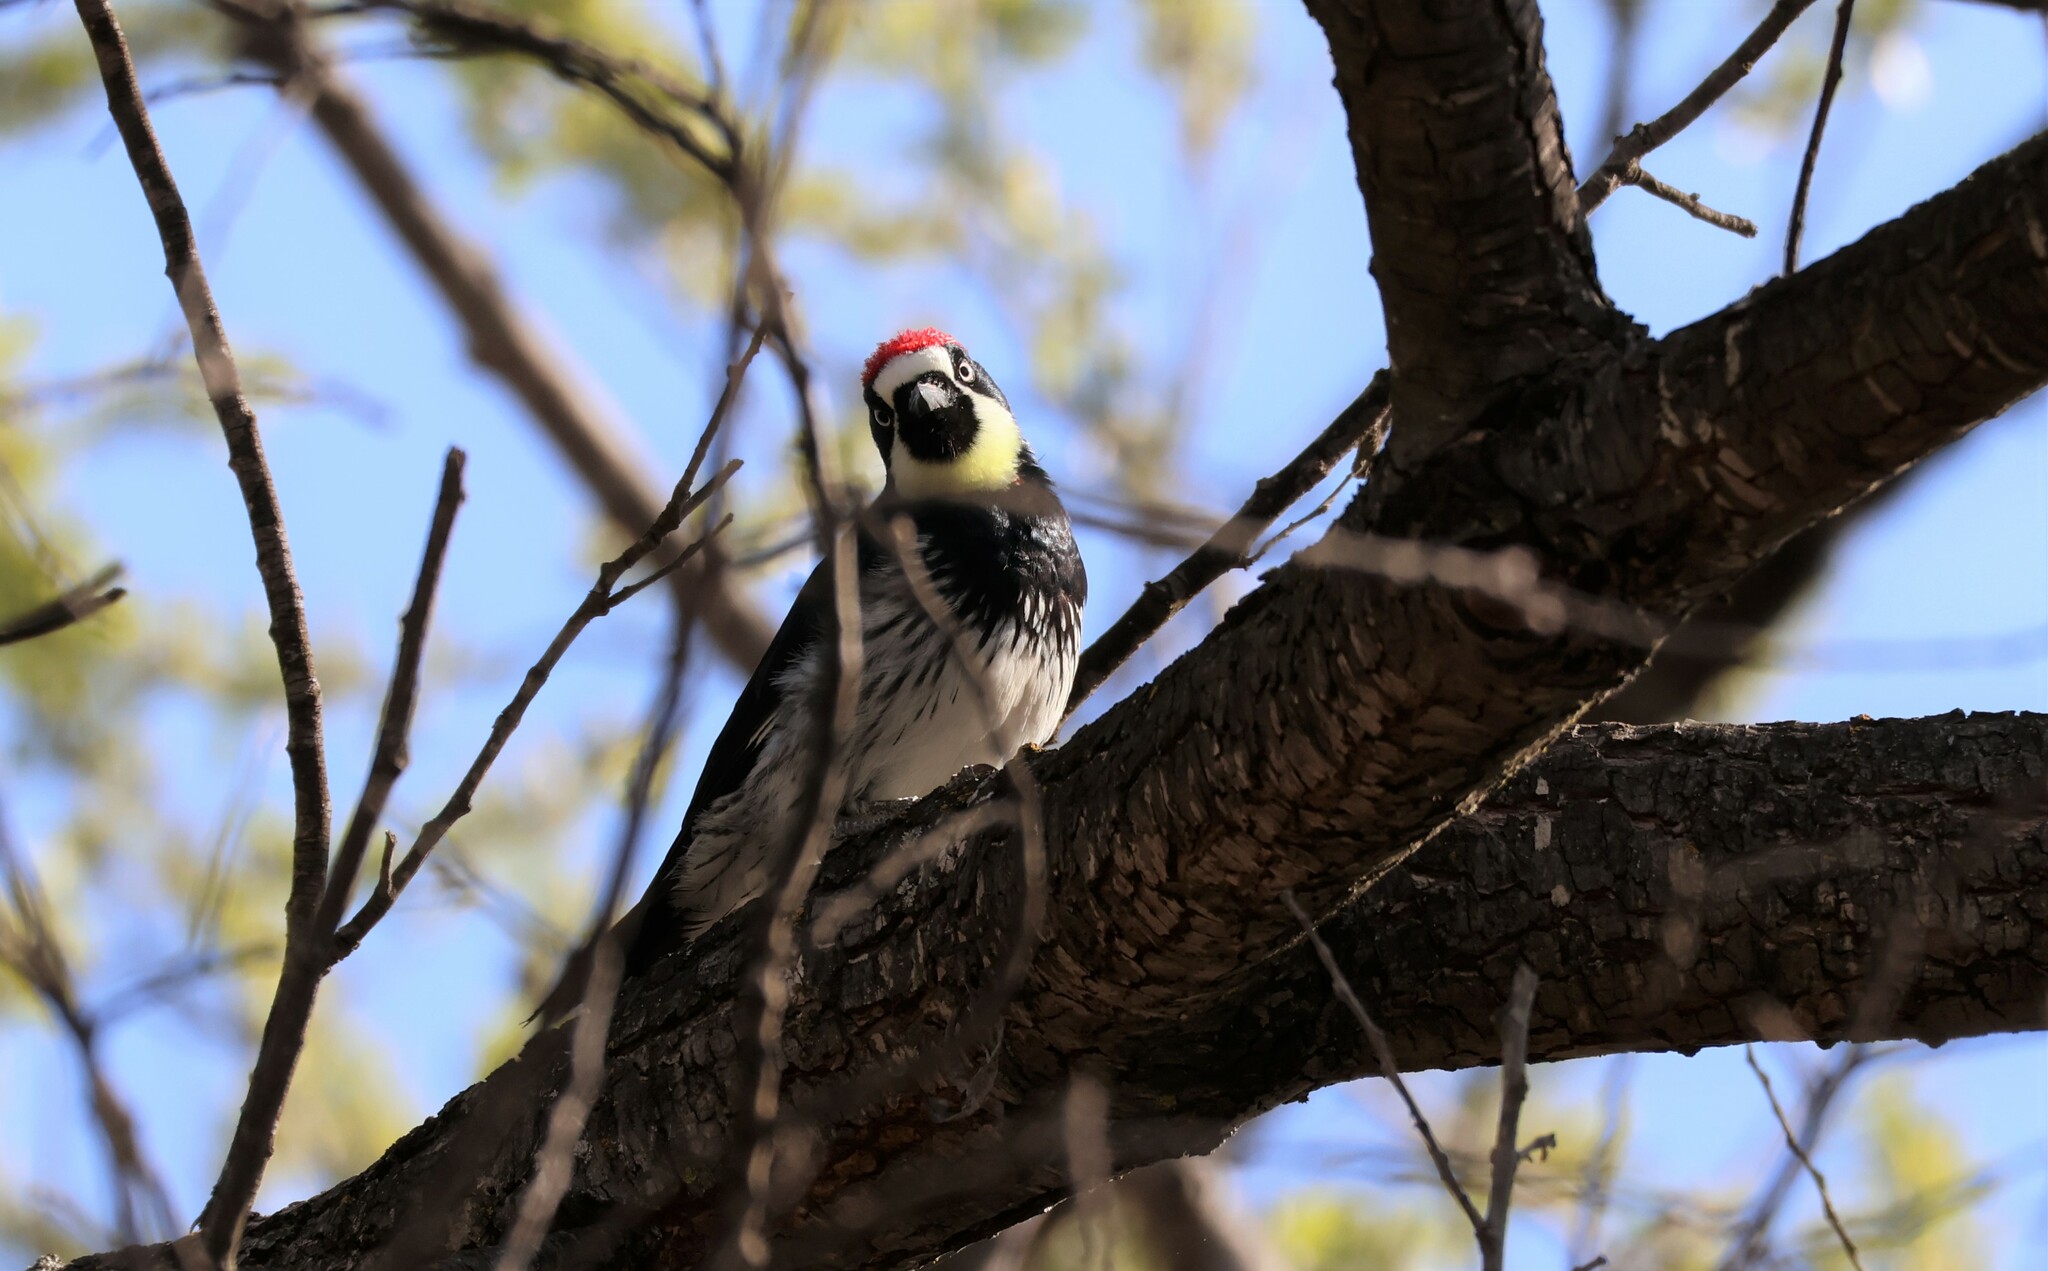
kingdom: Animalia
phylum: Chordata
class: Aves
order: Piciformes
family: Picidae
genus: Melanerpes
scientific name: Melanerpes formicivorus
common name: Acorn woodpecker
